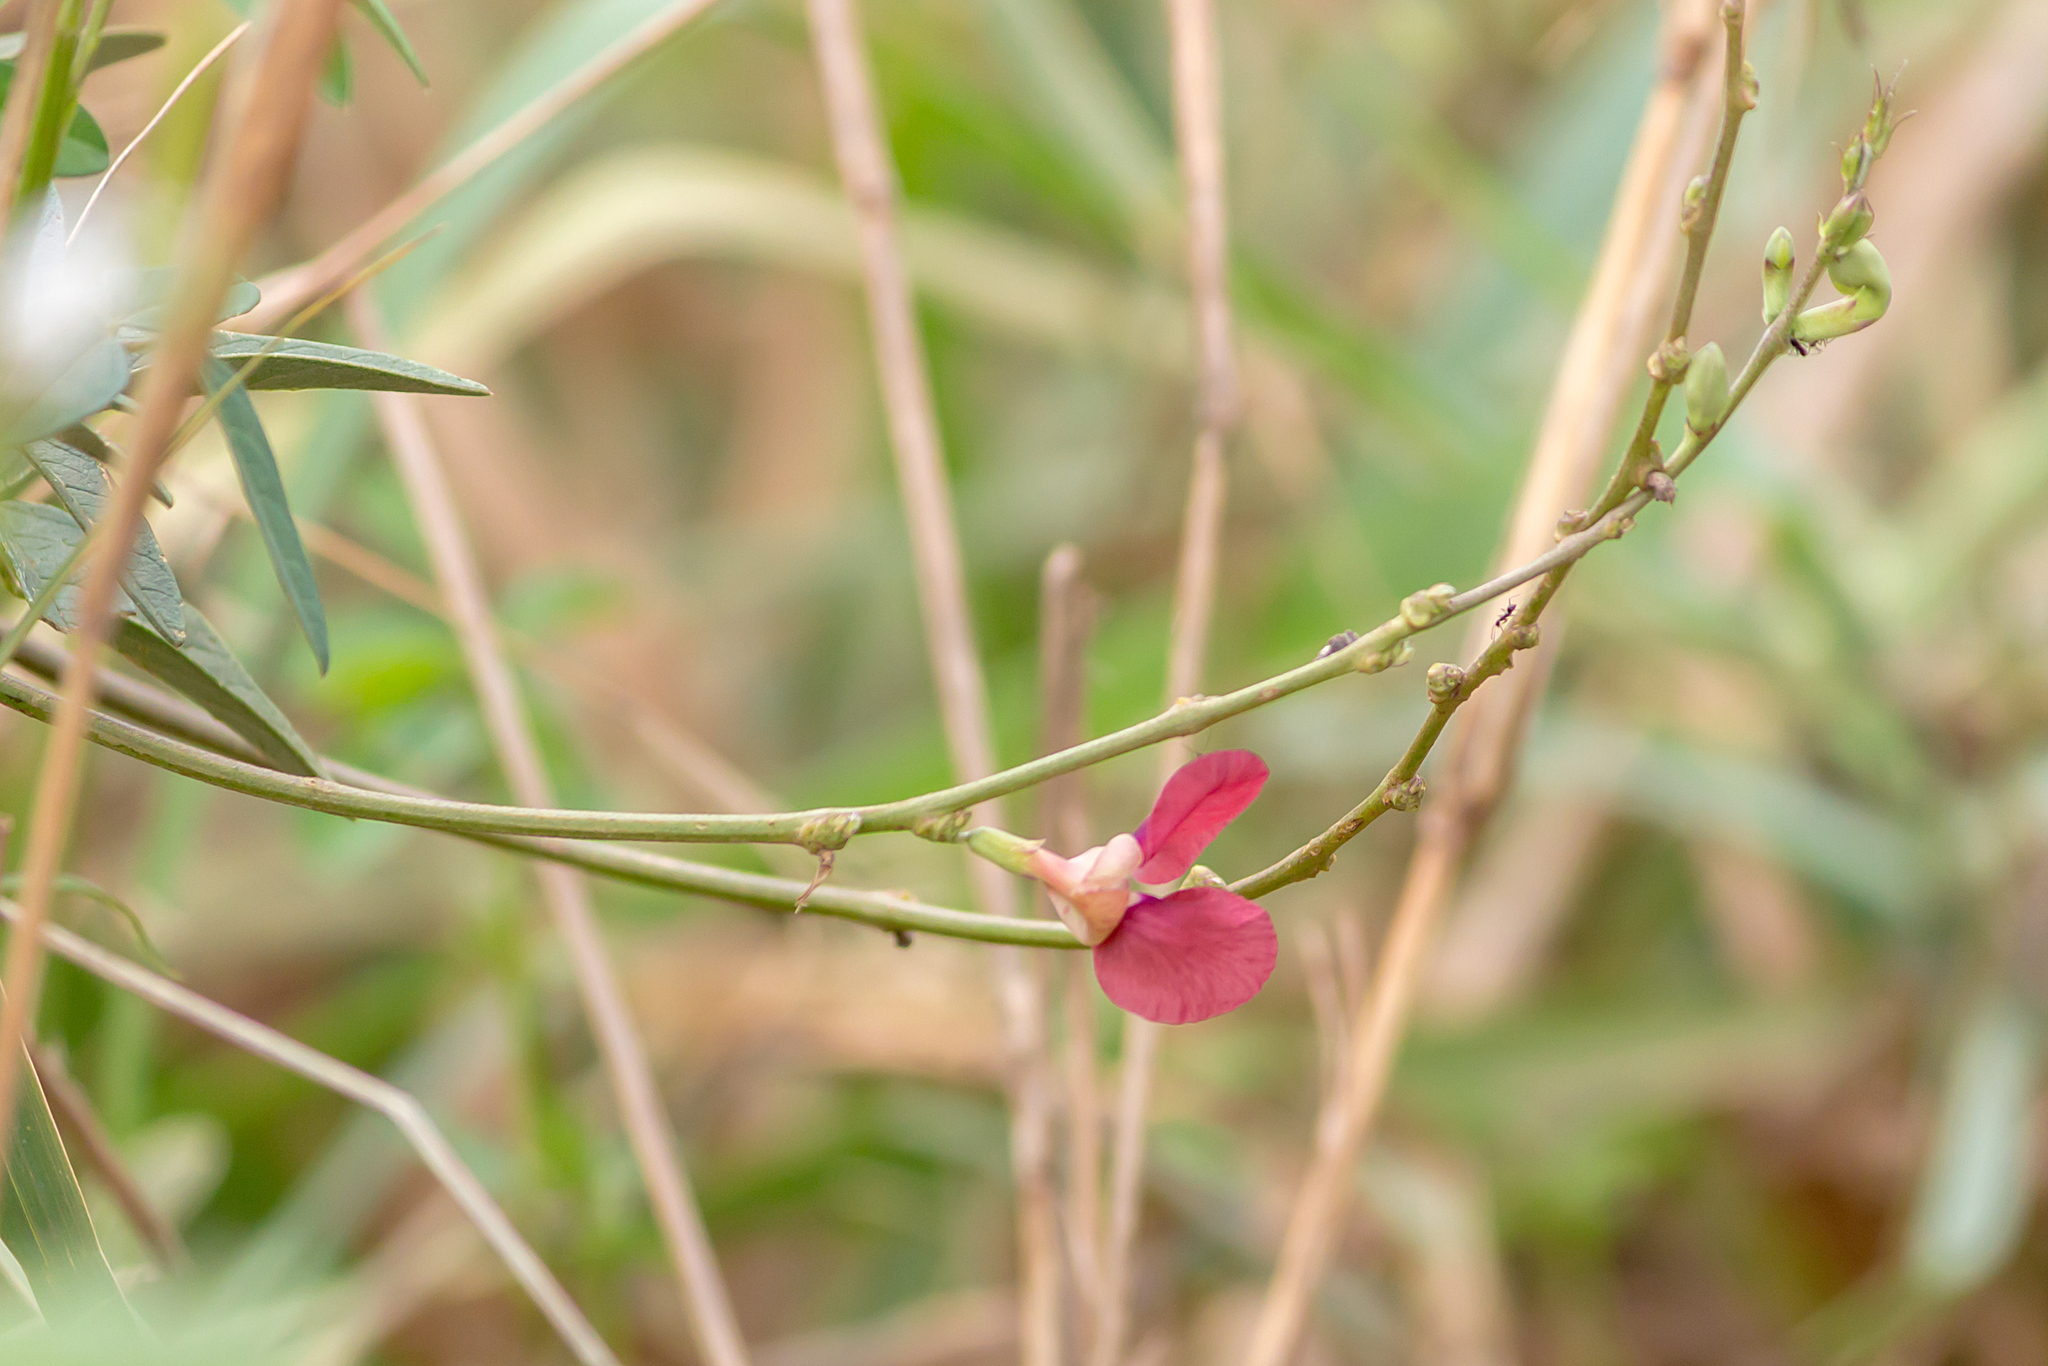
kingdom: Plantae
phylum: Tracheophyta
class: Magnoliopsida
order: Fabales
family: Fabaceae
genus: Macroptilium
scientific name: Macroptilium lathyroides
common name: Wild bushbean
